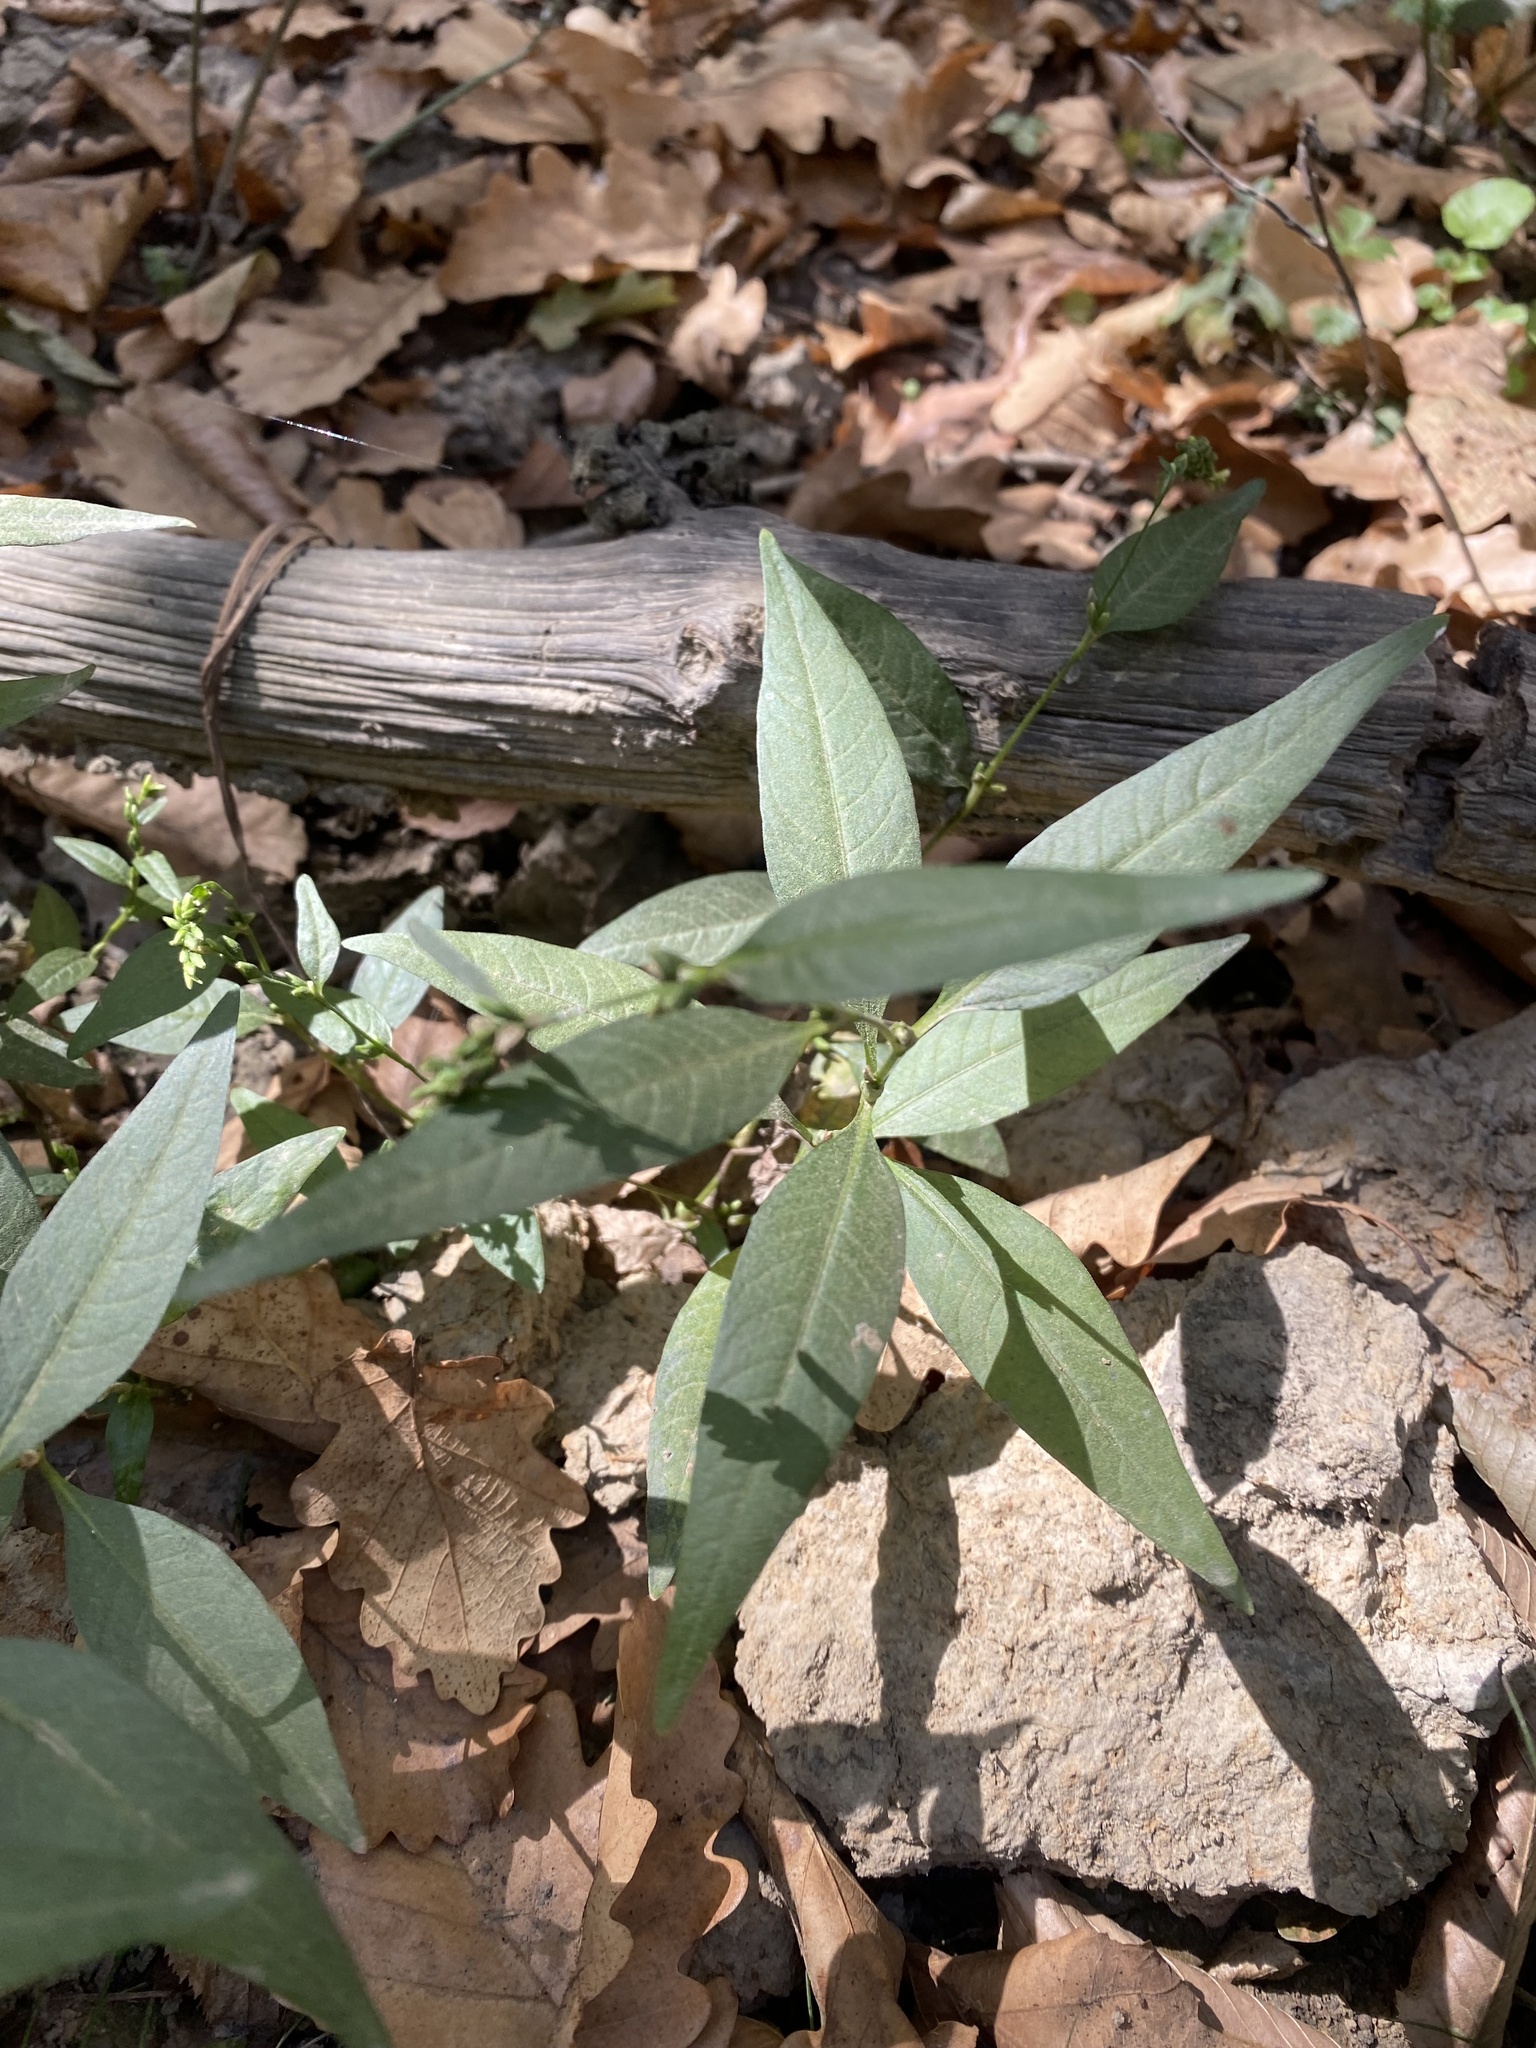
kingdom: Plantae
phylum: Tracheophyta
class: Magnoliopsida
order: Caryophyllales
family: Polygonaceae
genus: Persicaria
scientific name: Persicaria hydropiper
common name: Water-pepper
